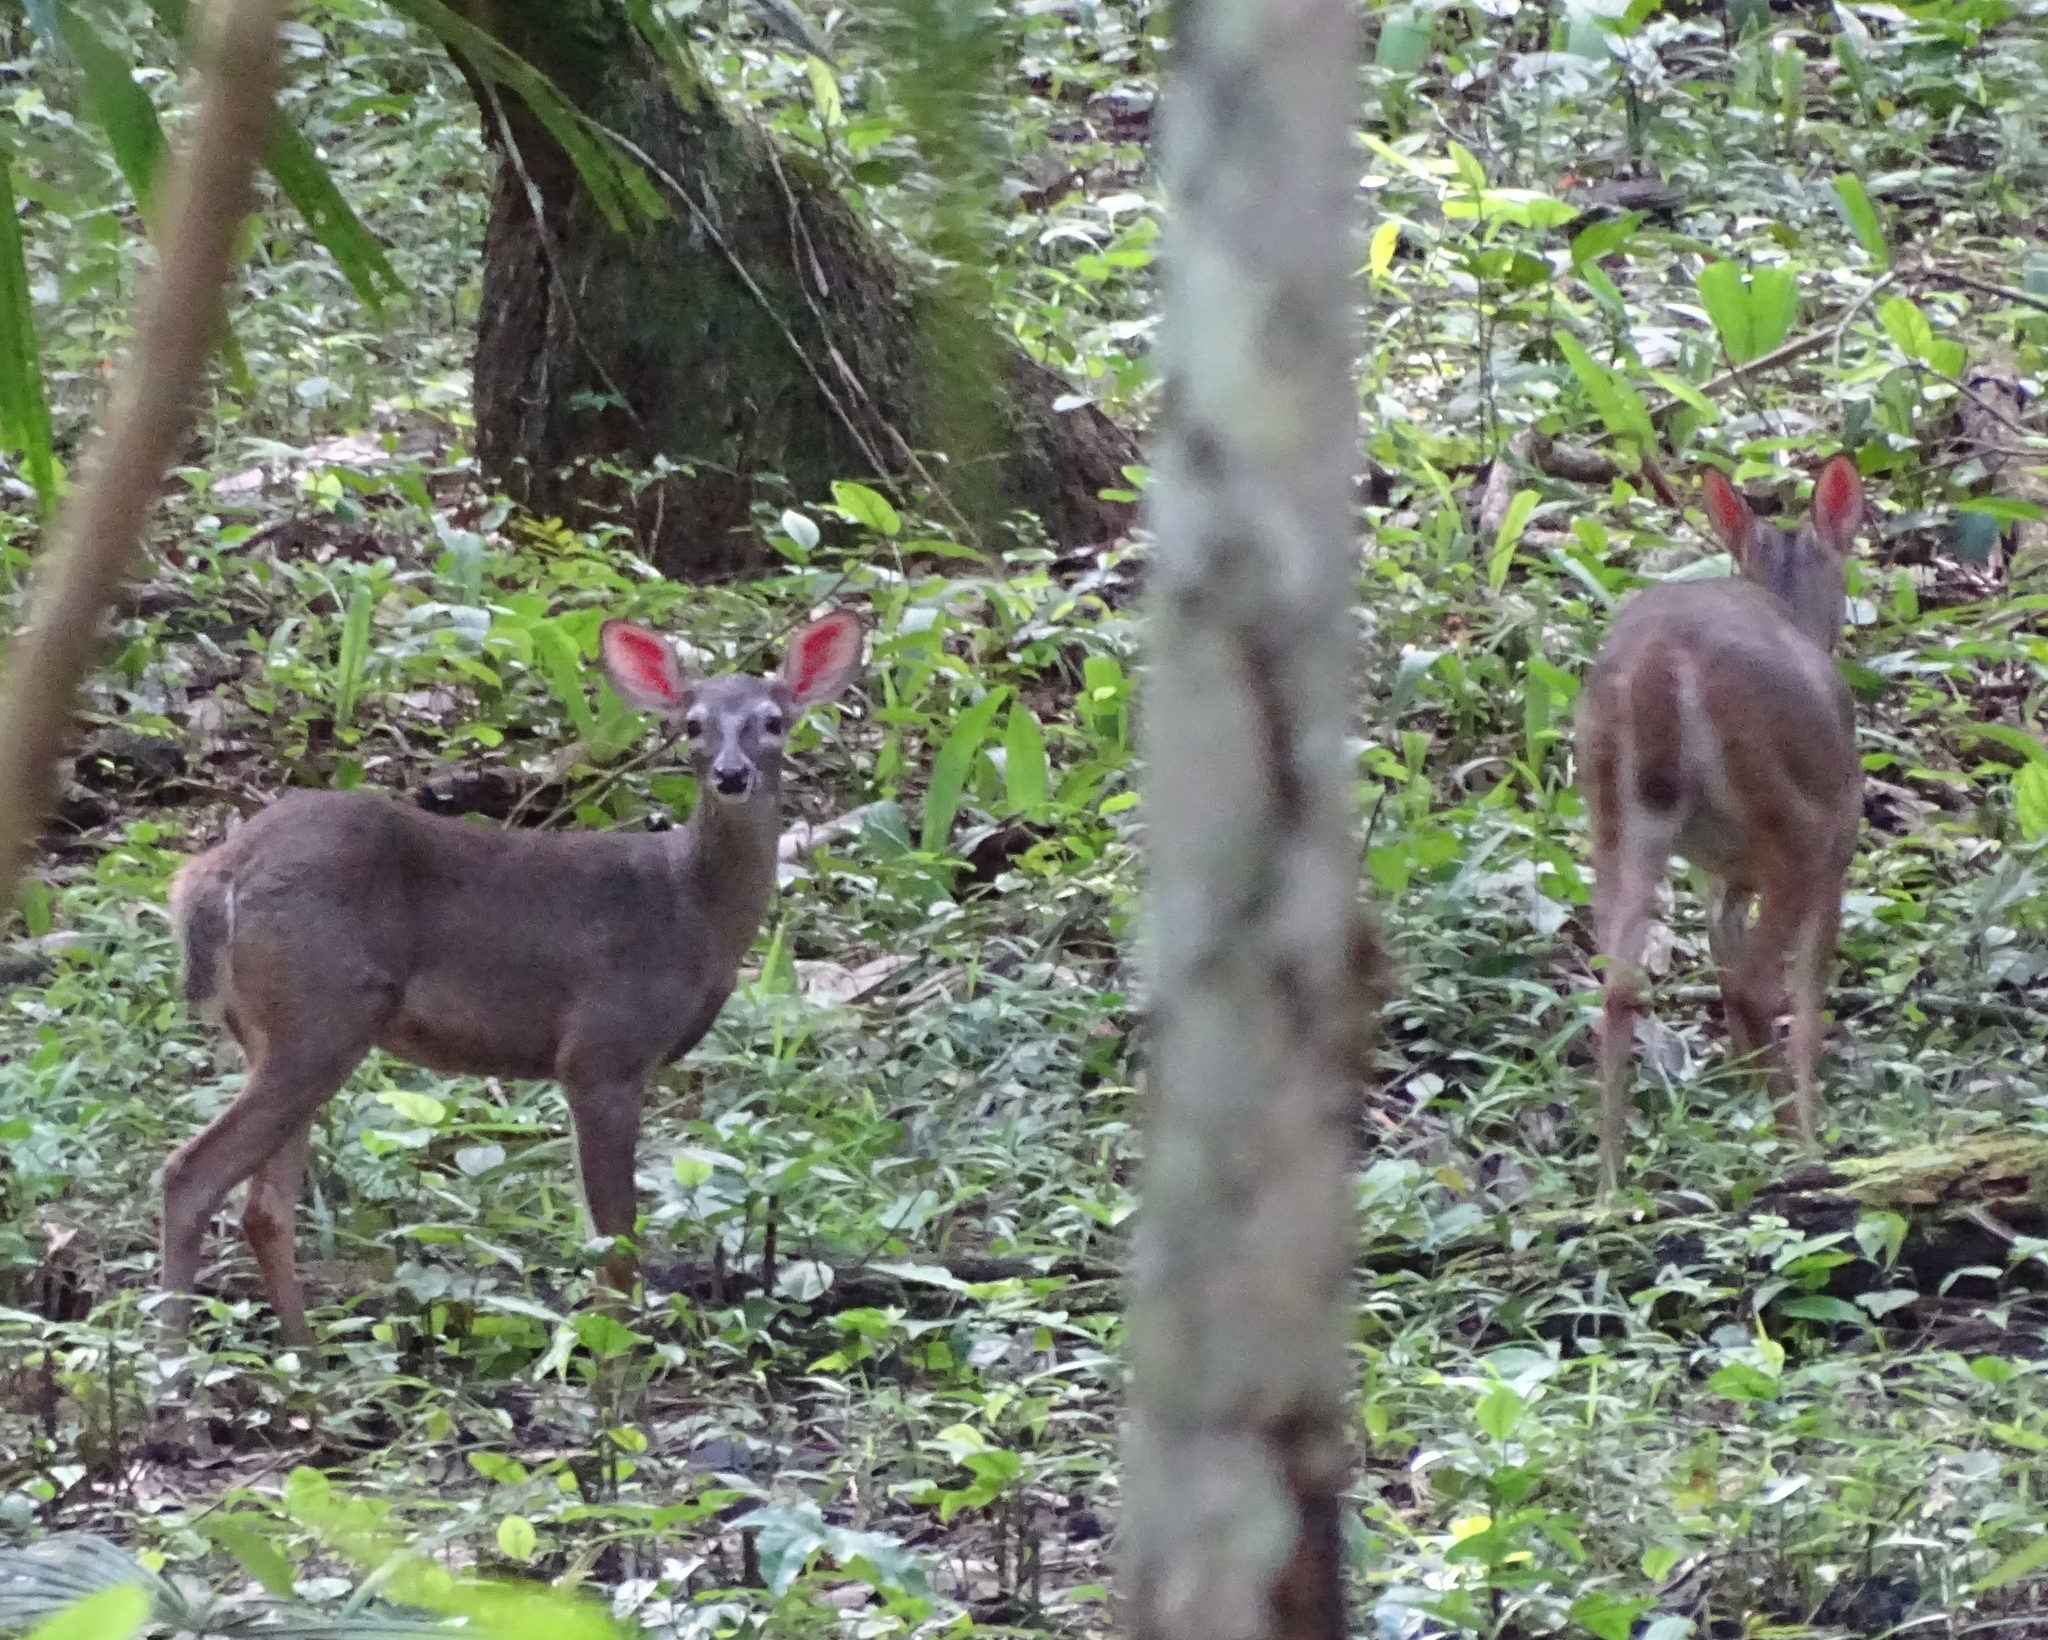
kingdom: Animalia
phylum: Chordata
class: Mammalia
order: Artiodactyla
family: Cervidae
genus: Odocoileus
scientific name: Odocoileus virginianus
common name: White-tailed deer
